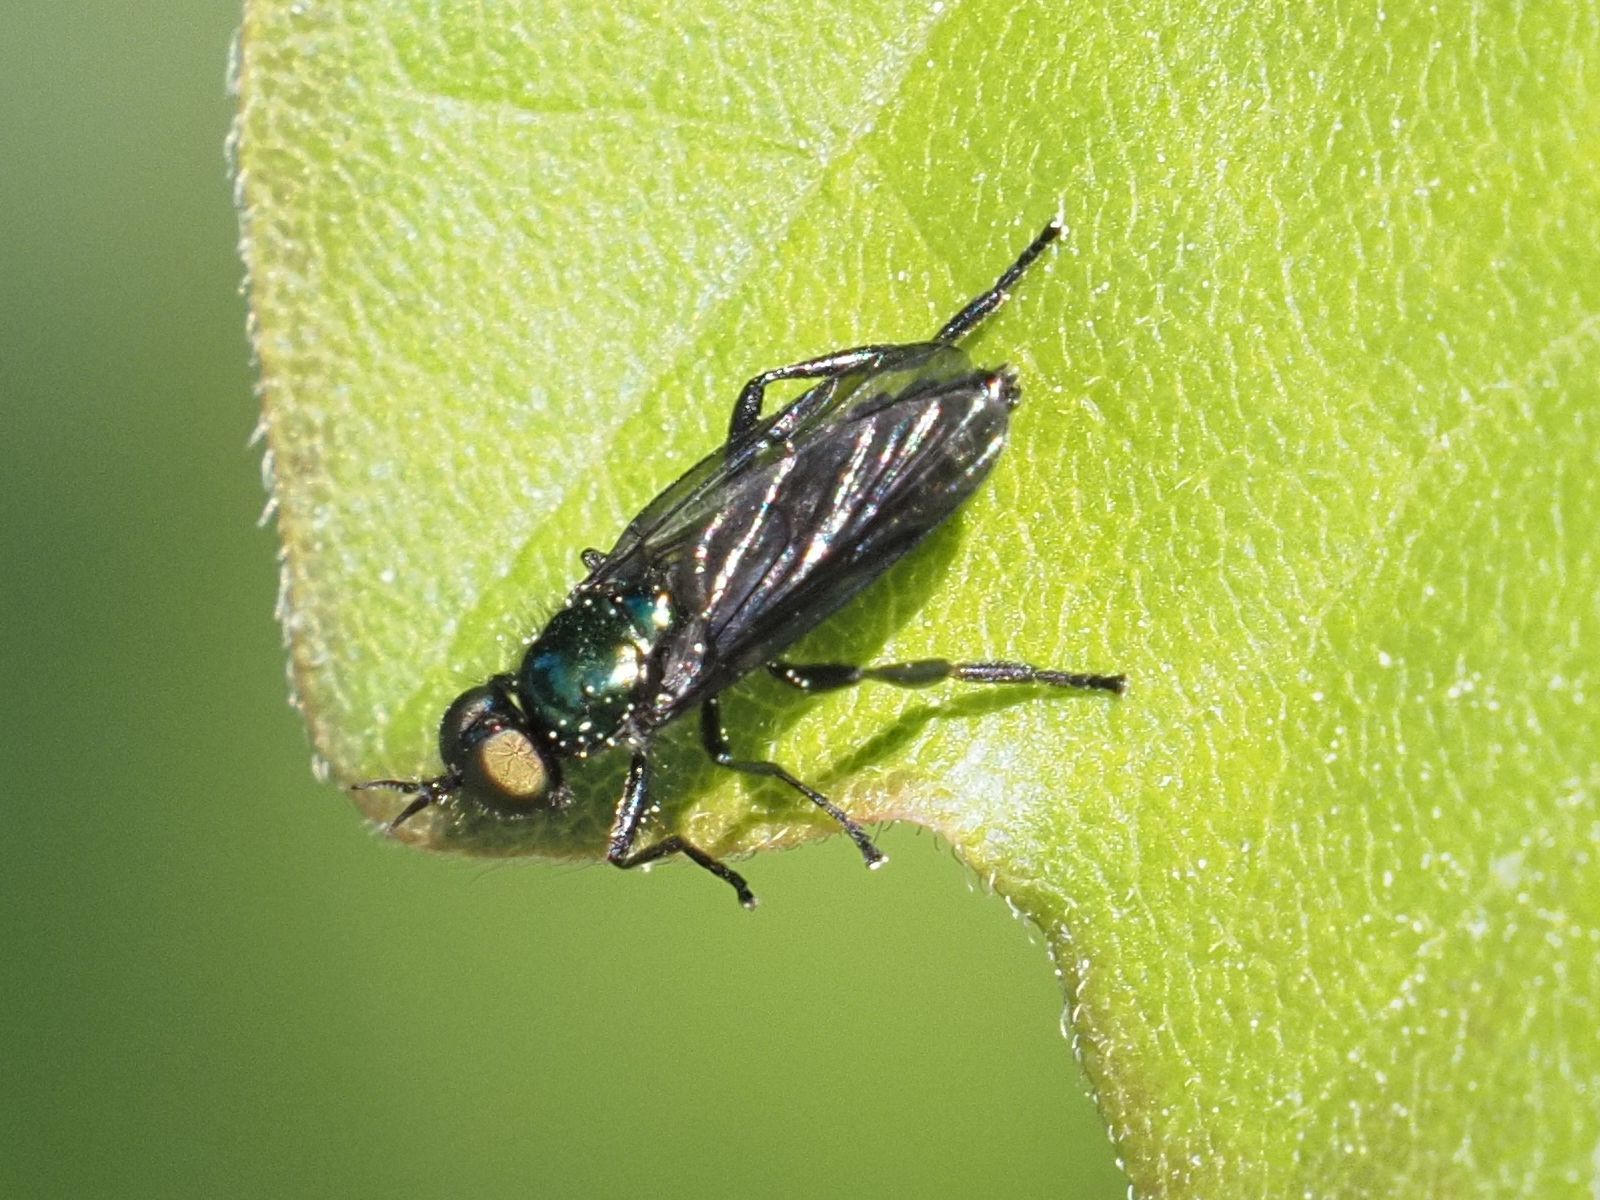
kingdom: Animalia
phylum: Arthropoda
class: Insecta
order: Diptera
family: Stratiomyidae
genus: Actina
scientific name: Actina chalybea
